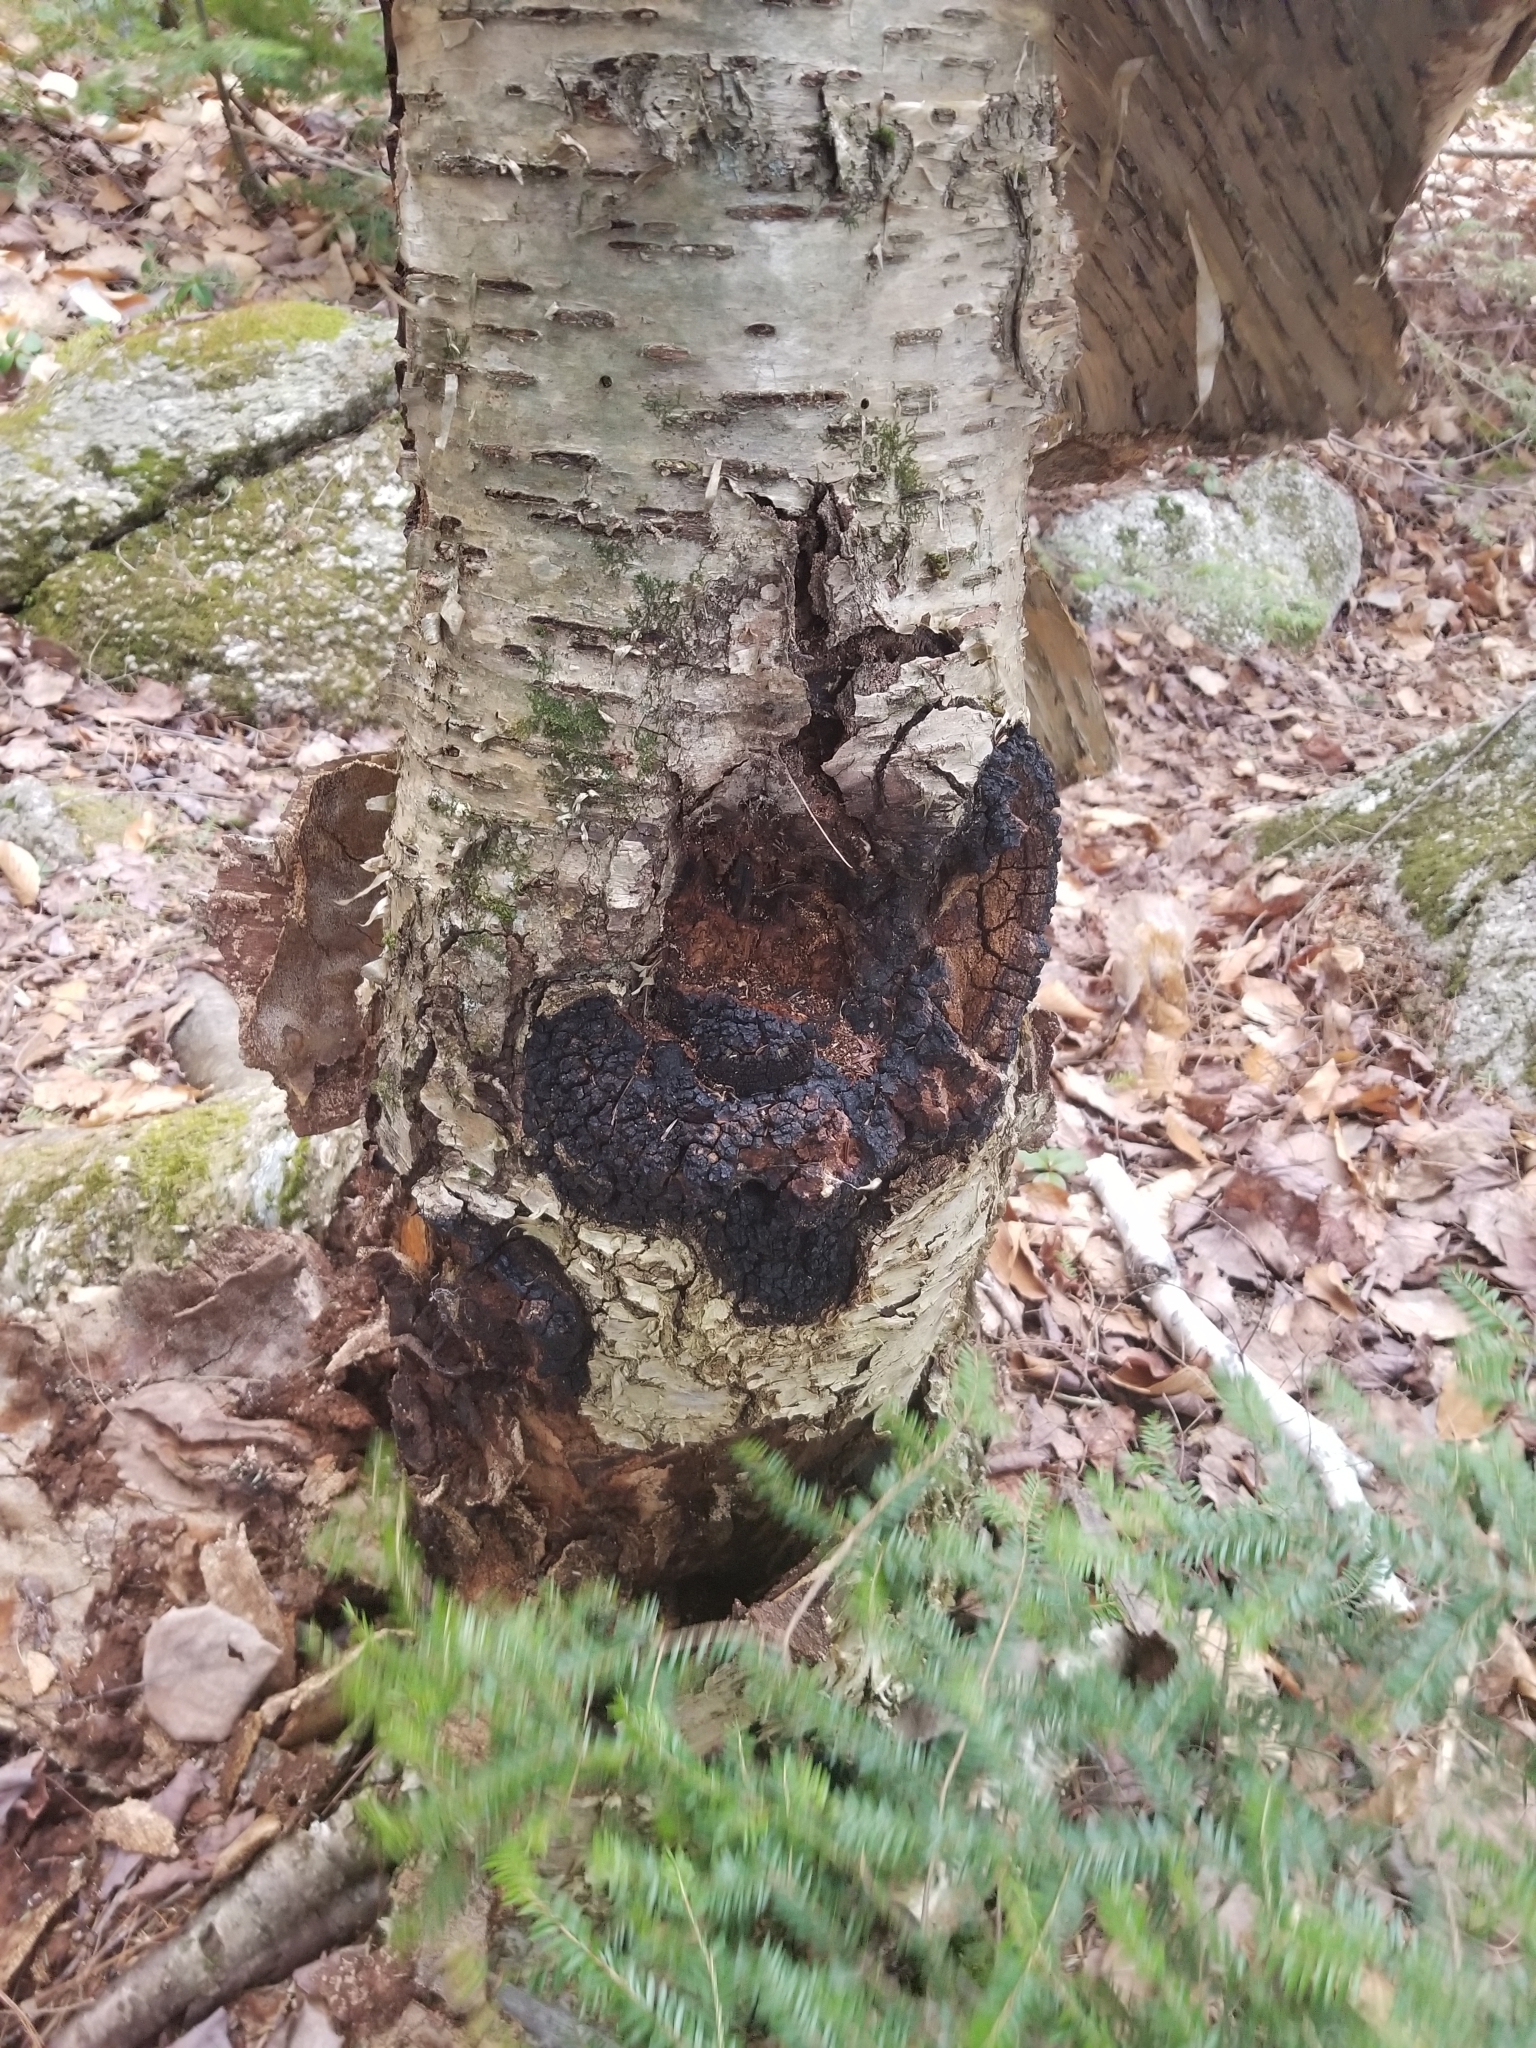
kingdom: Fungi
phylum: Basidiomycota
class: Agaricomycetes
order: Hymenochaetales
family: Hymenochaetaceae
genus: Inonotus
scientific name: Inonotus obliquus
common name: Chaga
